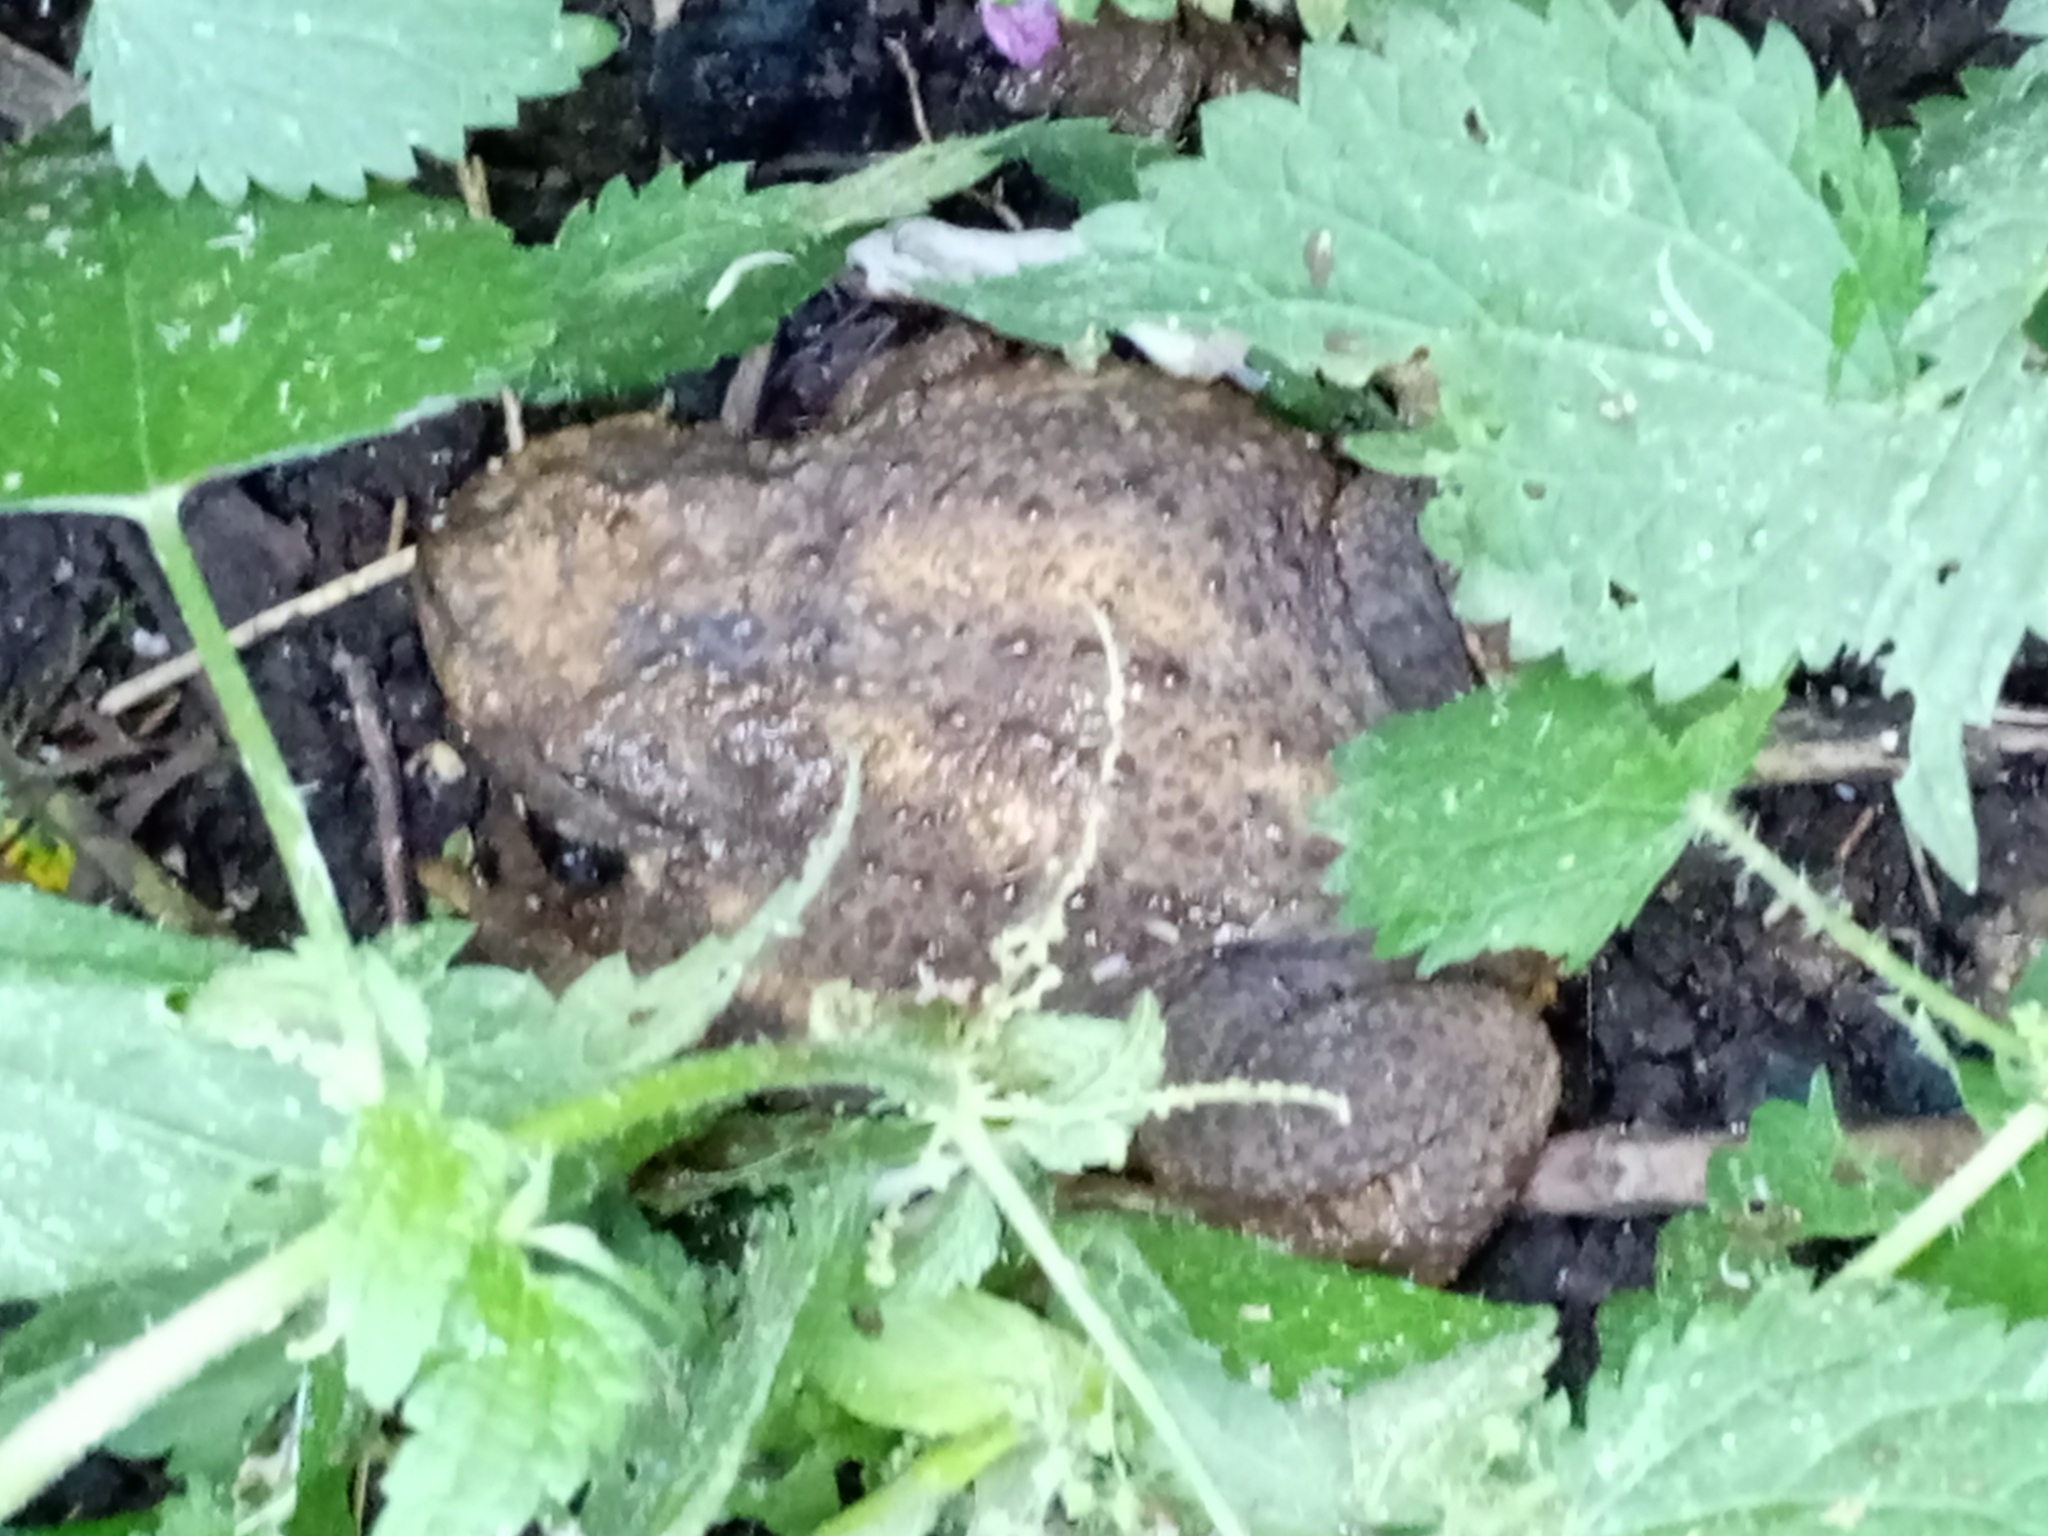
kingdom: Animalia
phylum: Chordata
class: Amphibia
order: Anura
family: Bufonidae
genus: Bufo
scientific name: Bufo bufo
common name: Common toad
